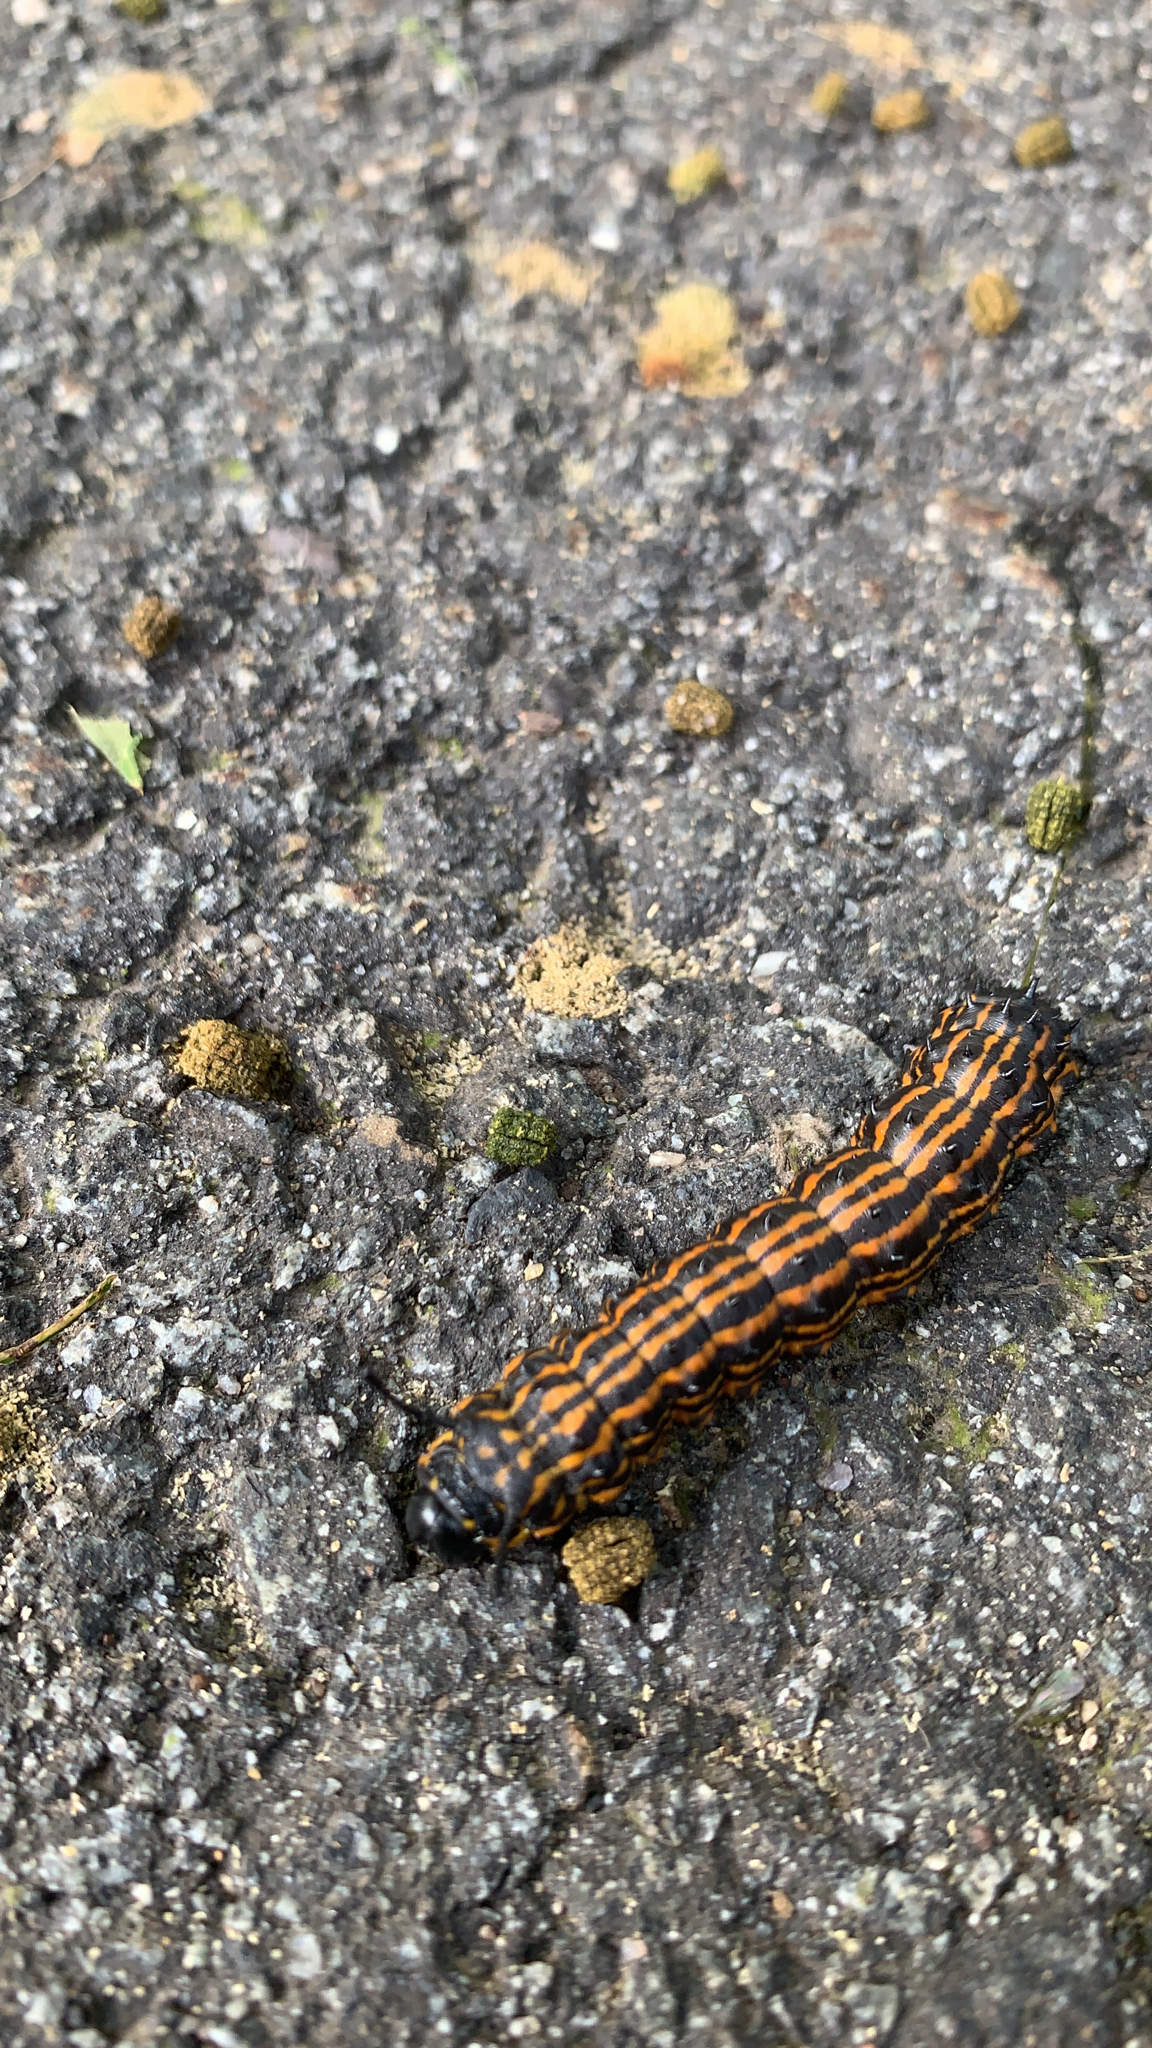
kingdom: Animalia
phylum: Arthropoda
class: Insecta
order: Lepidoptera
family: Saturniidae
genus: Anisota
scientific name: Anisota senatoria
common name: Orange-striped oakworm moth
